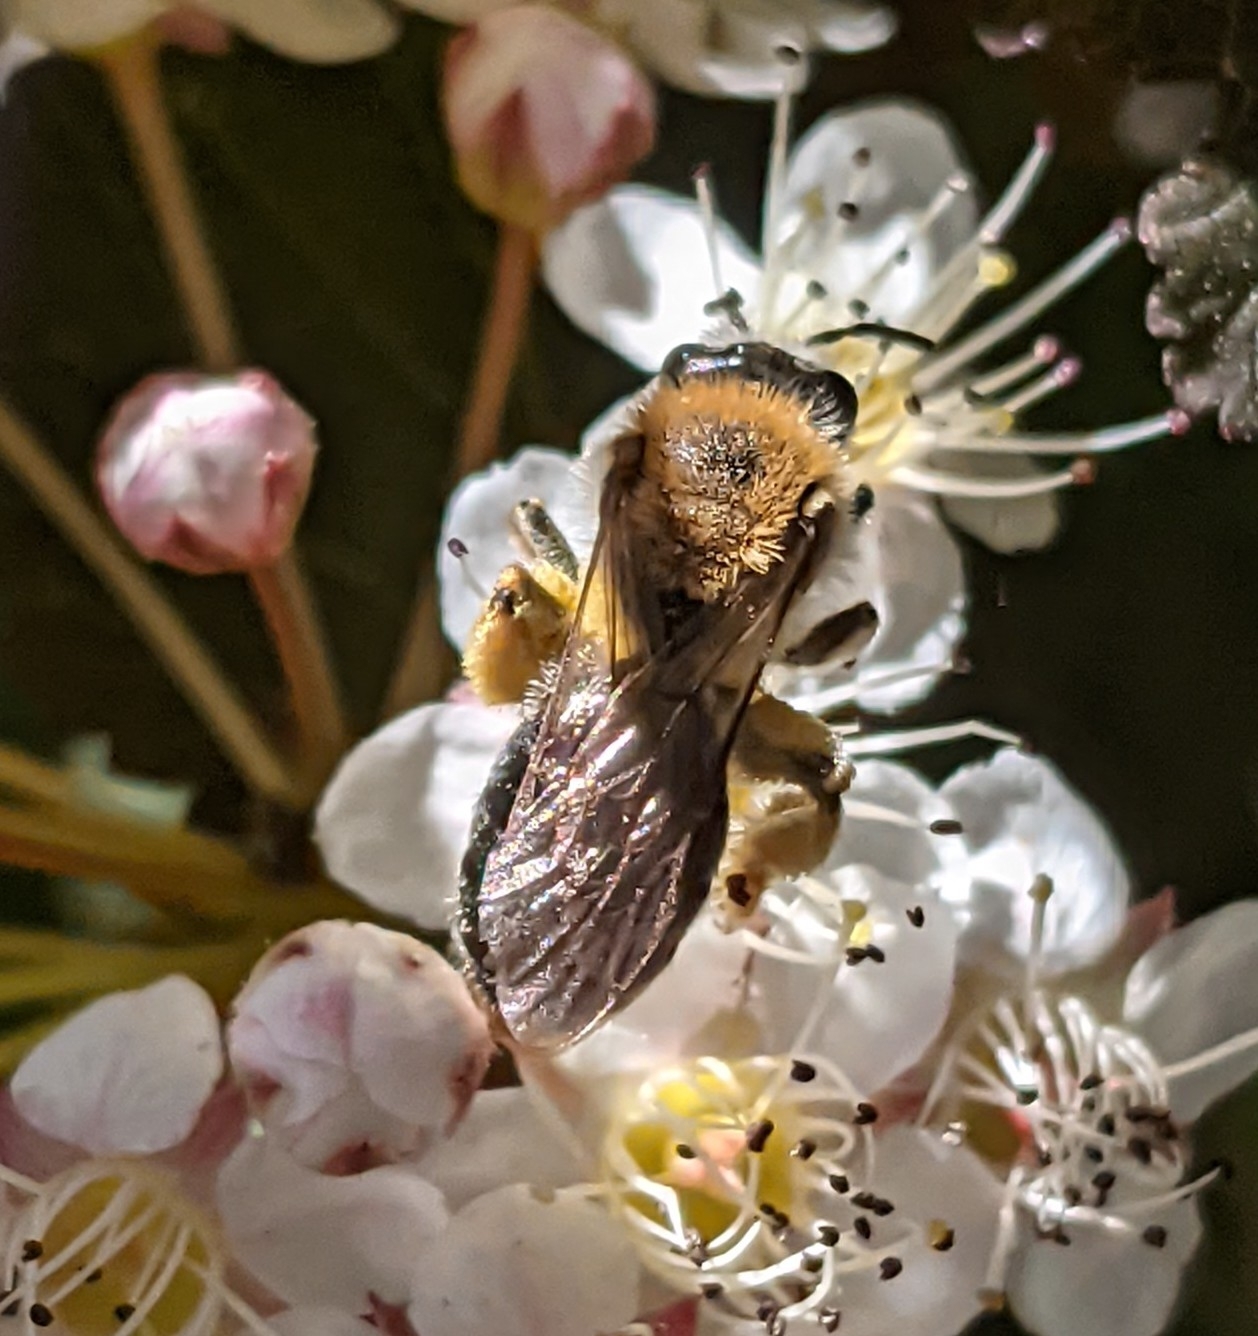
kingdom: Animalia
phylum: Arthropoda
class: Insecta
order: Hymenoptera
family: Andrenidae
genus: Andrena
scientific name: Andrena haemorrhoa
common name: Early mining bee
